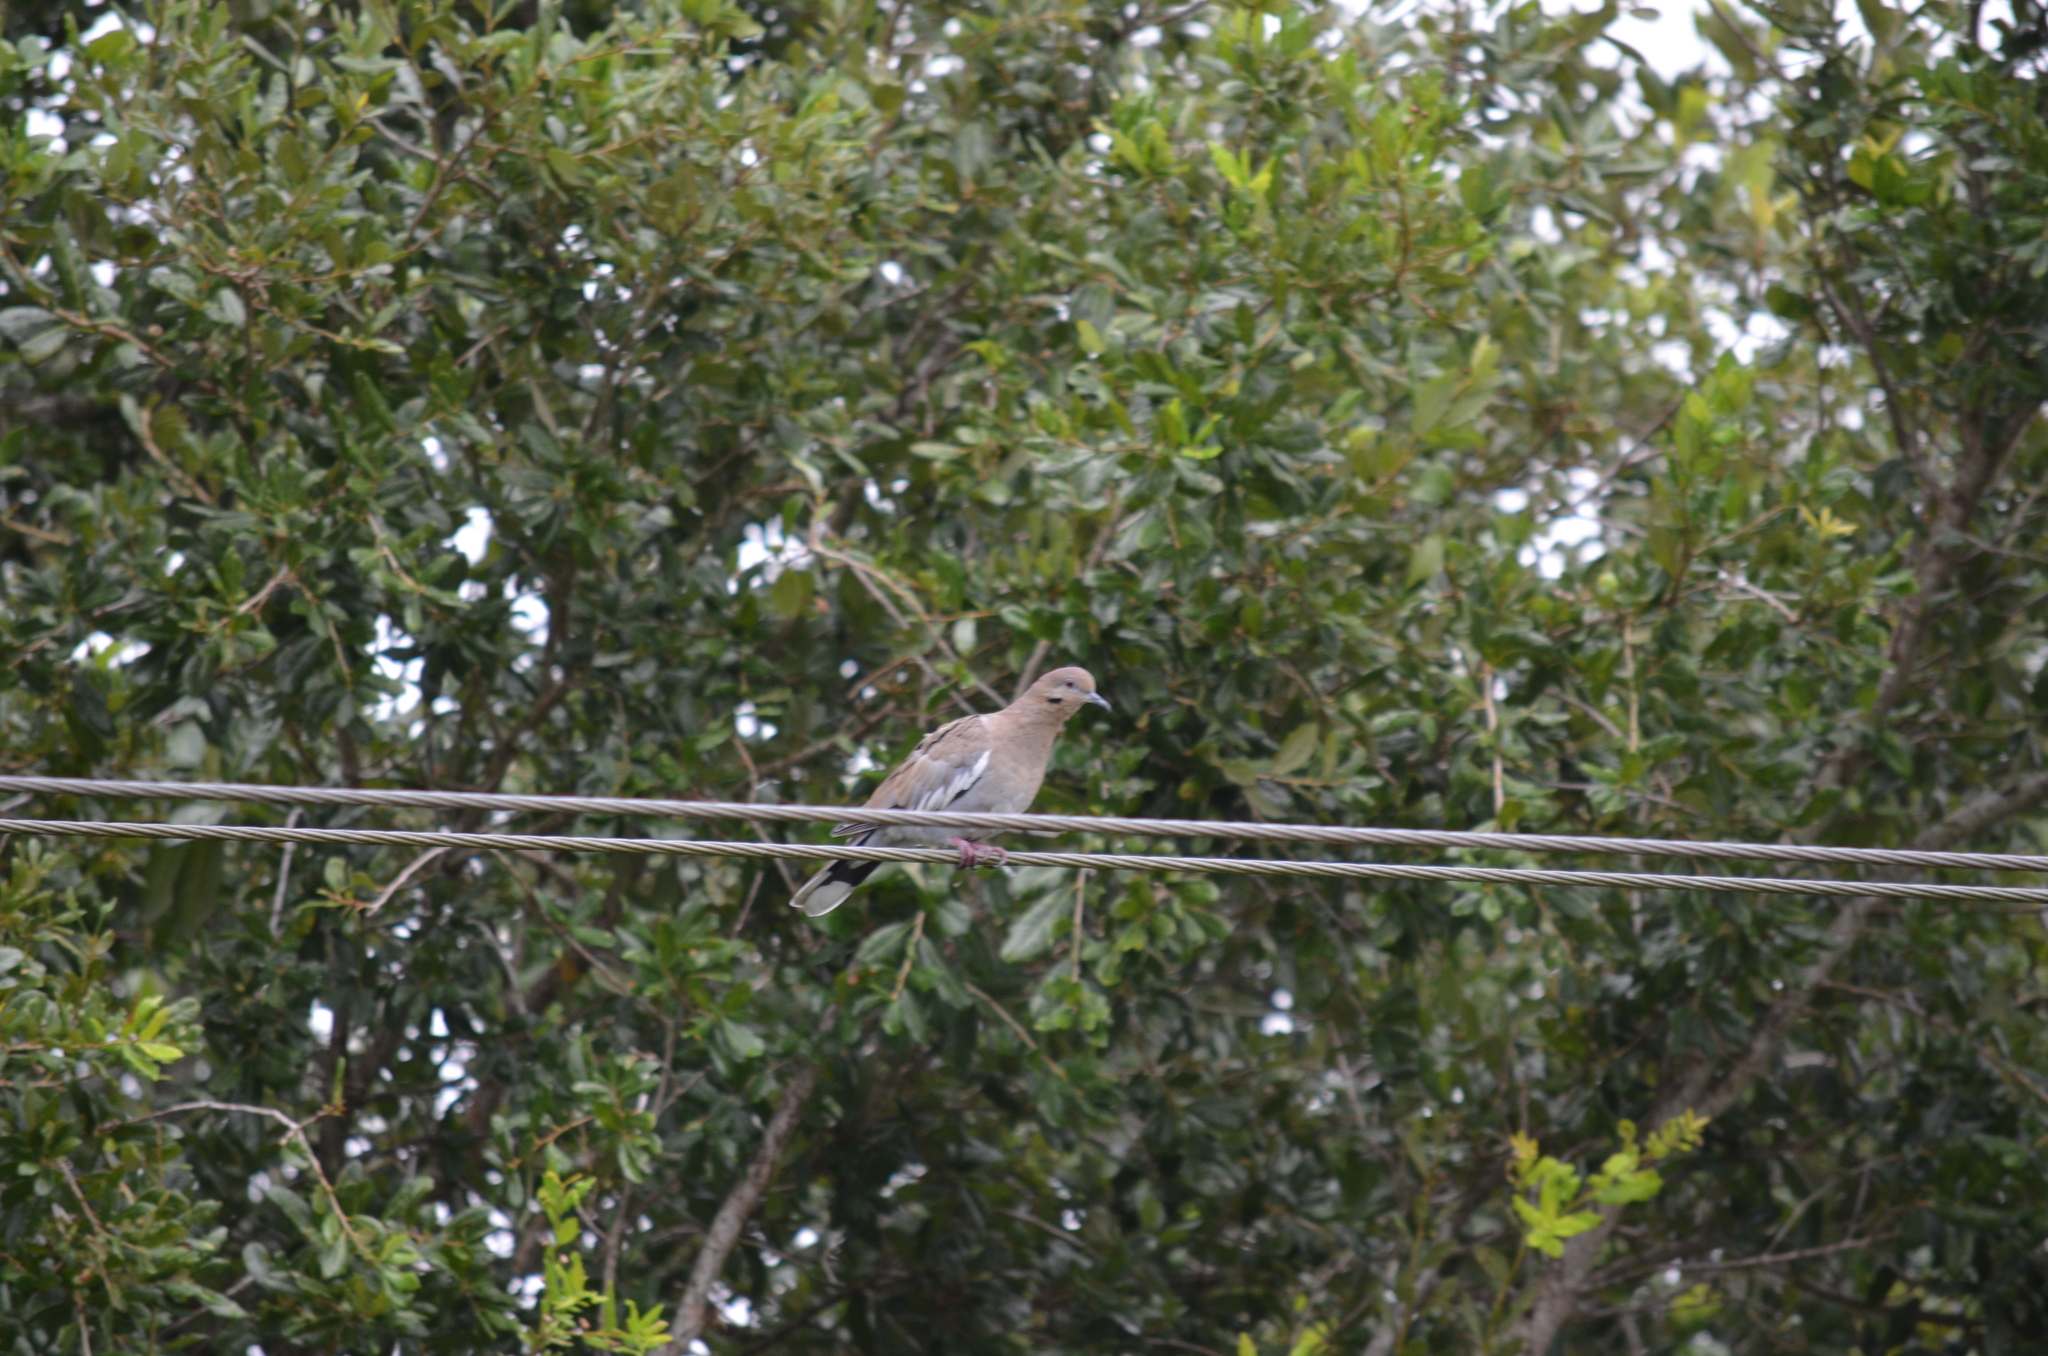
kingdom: Animalia
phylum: Chordata
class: Aves
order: Columbiformes
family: Columbidae
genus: Zenaida
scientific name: Zenaida asiatica
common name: White-winged dove
